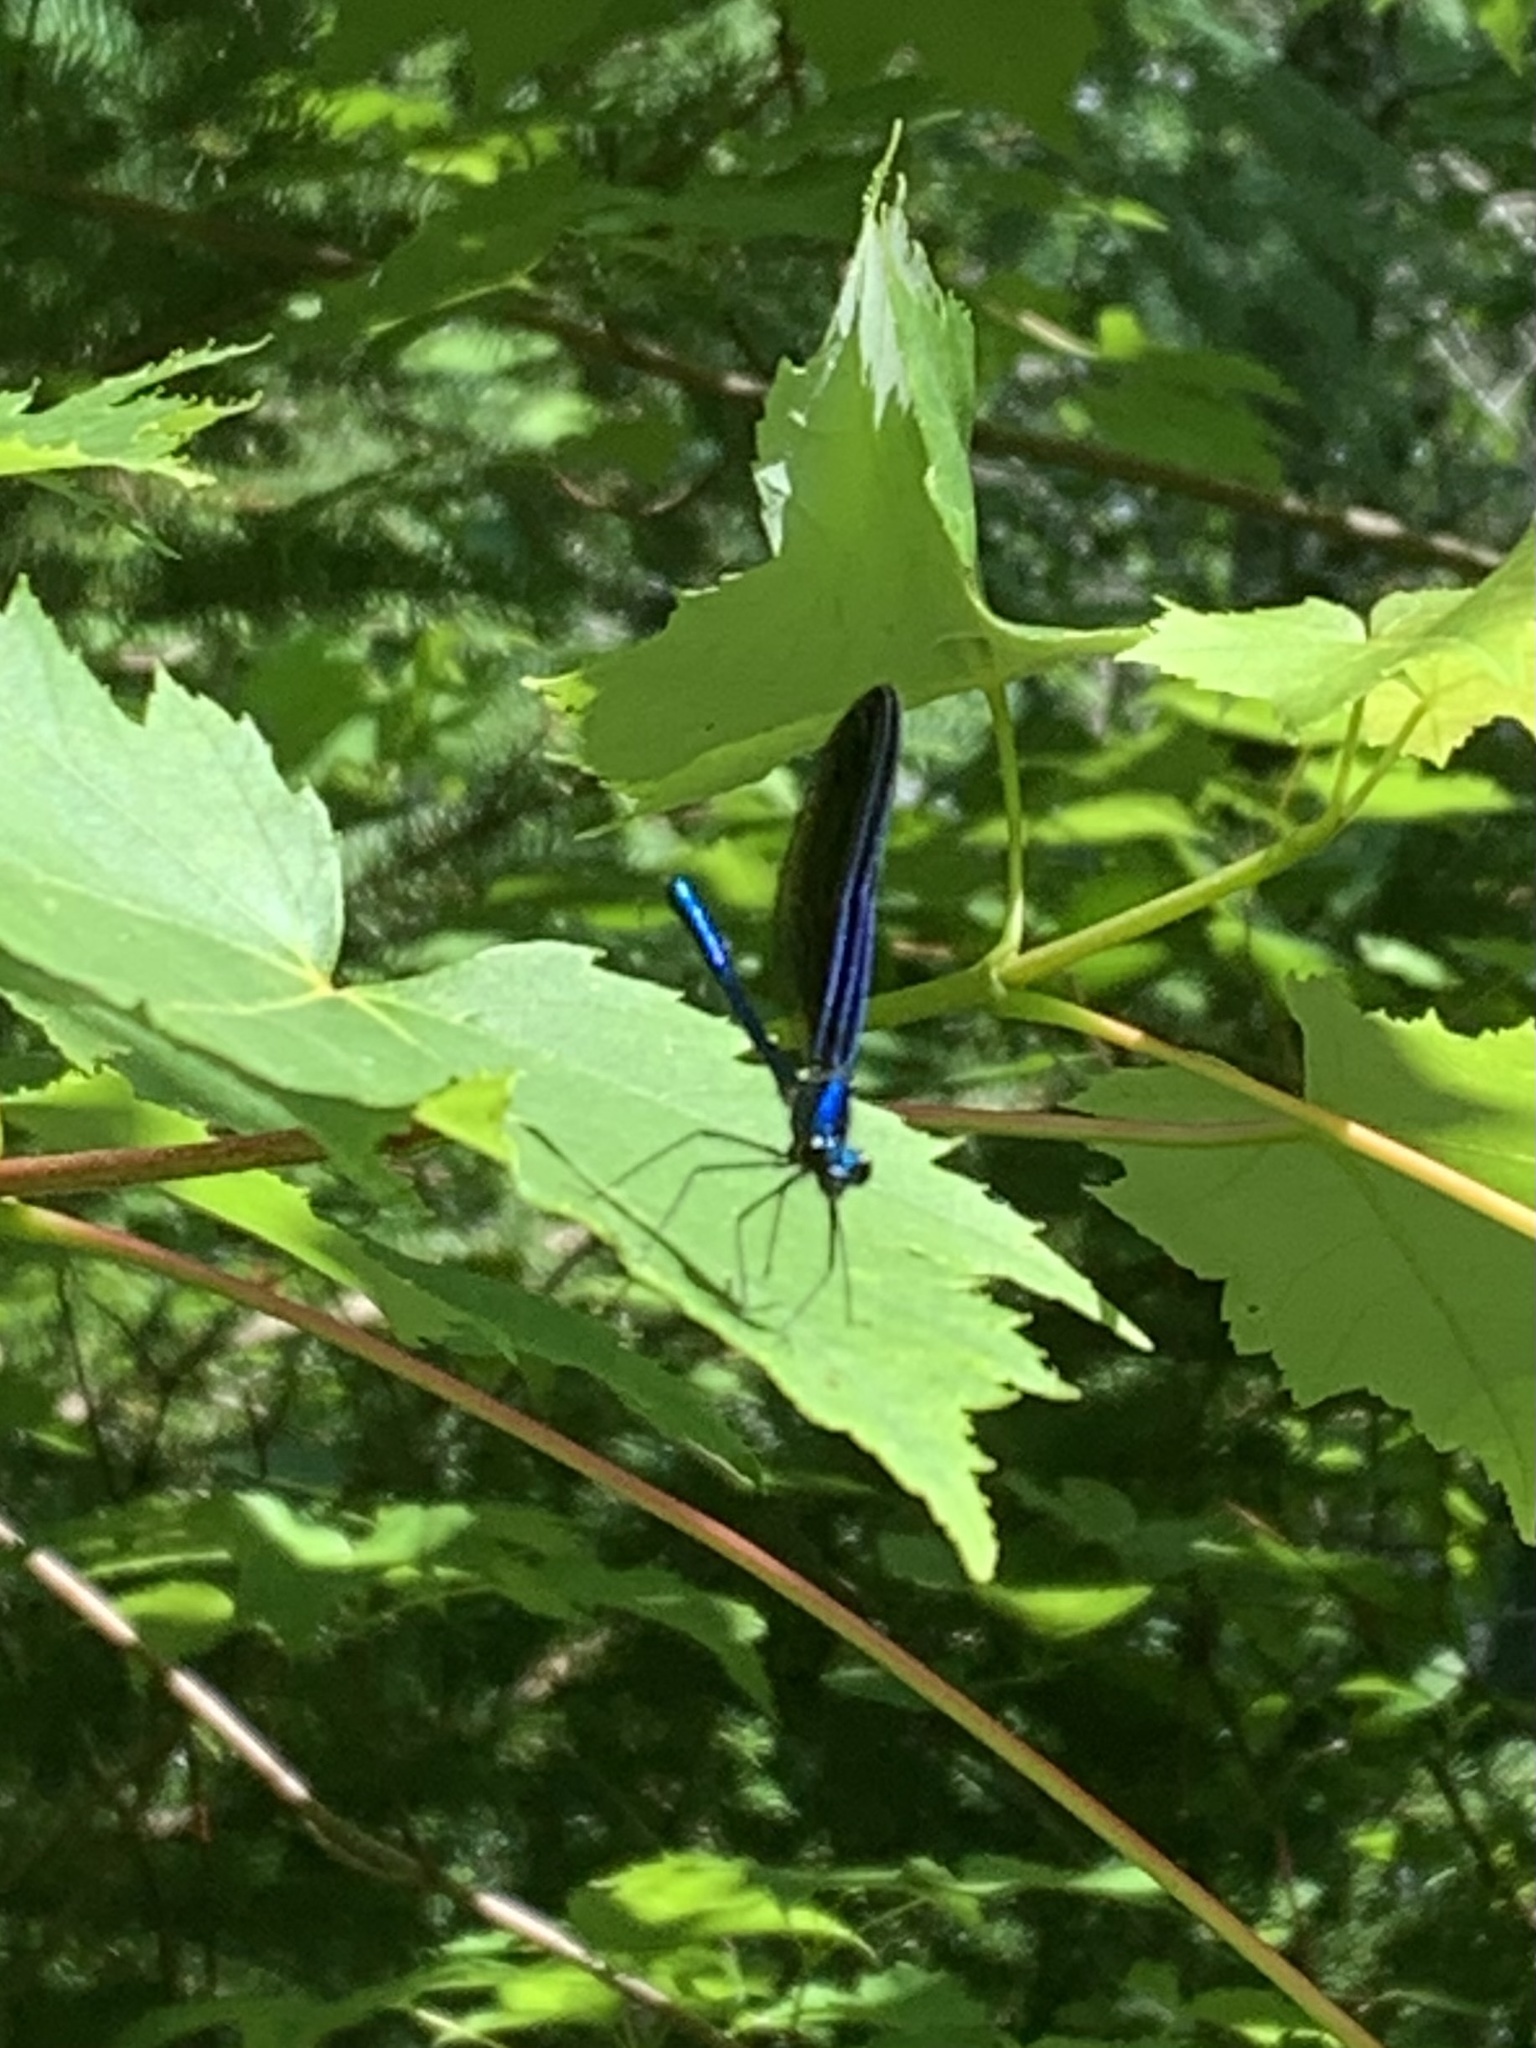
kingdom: Animalia
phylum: Arthropoda
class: Insecta
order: Odonata
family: Calopterygidae
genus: Calopteryx
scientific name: Calopteryx maculata
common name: Ebony jewelwing
